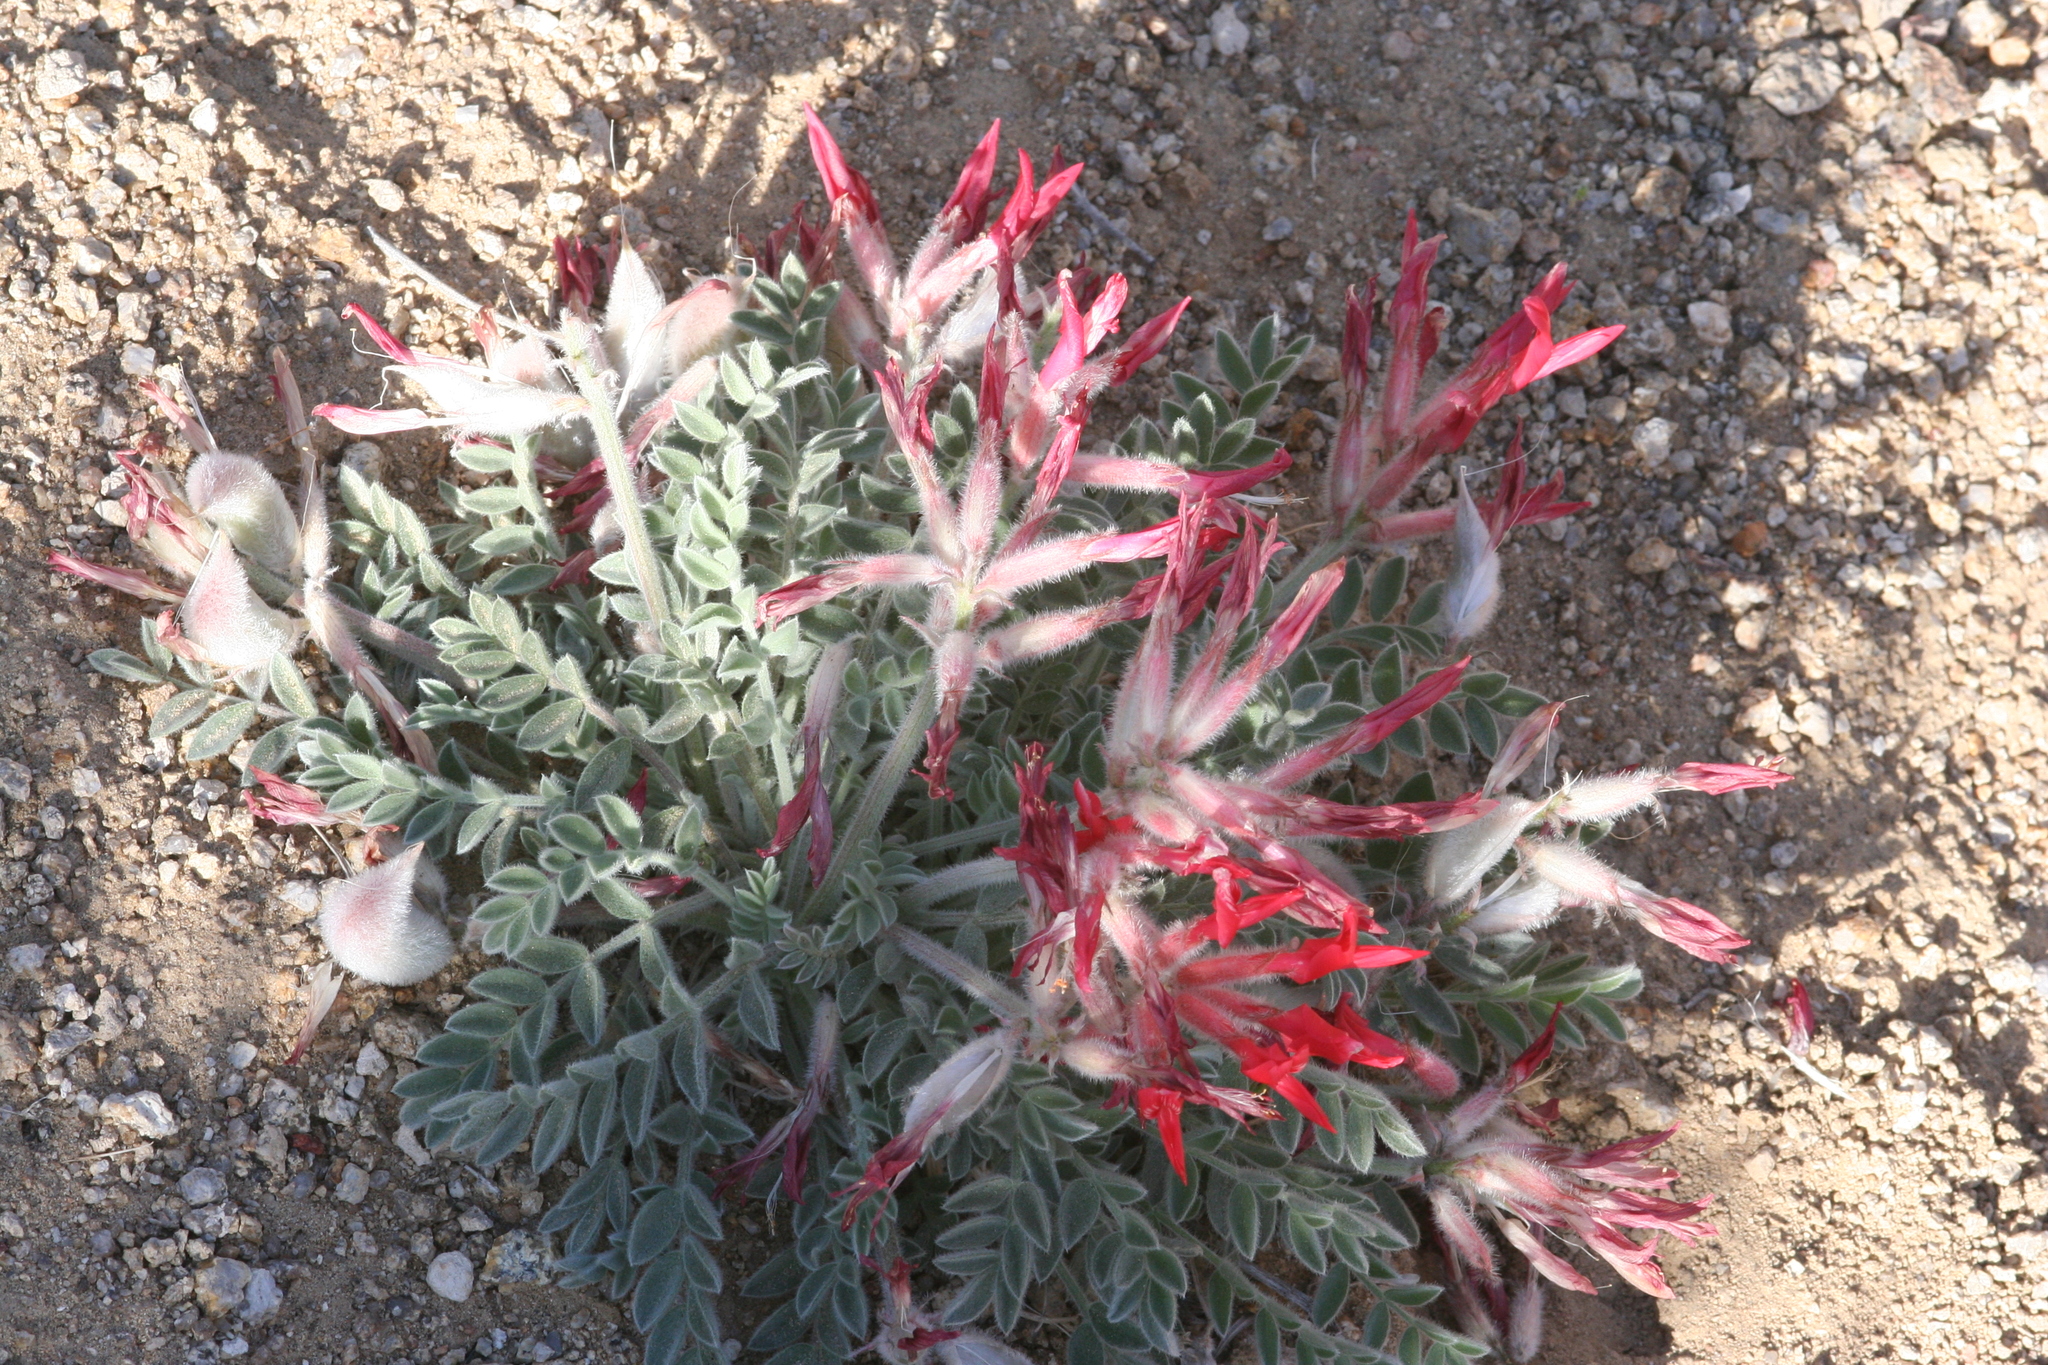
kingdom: Plantae
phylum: Tracheophyta
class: Magnoliopsida
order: Fabales
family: Fabaceae
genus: Astragalus
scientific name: Astragalus coccineus
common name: Scarlet milk-vetch
